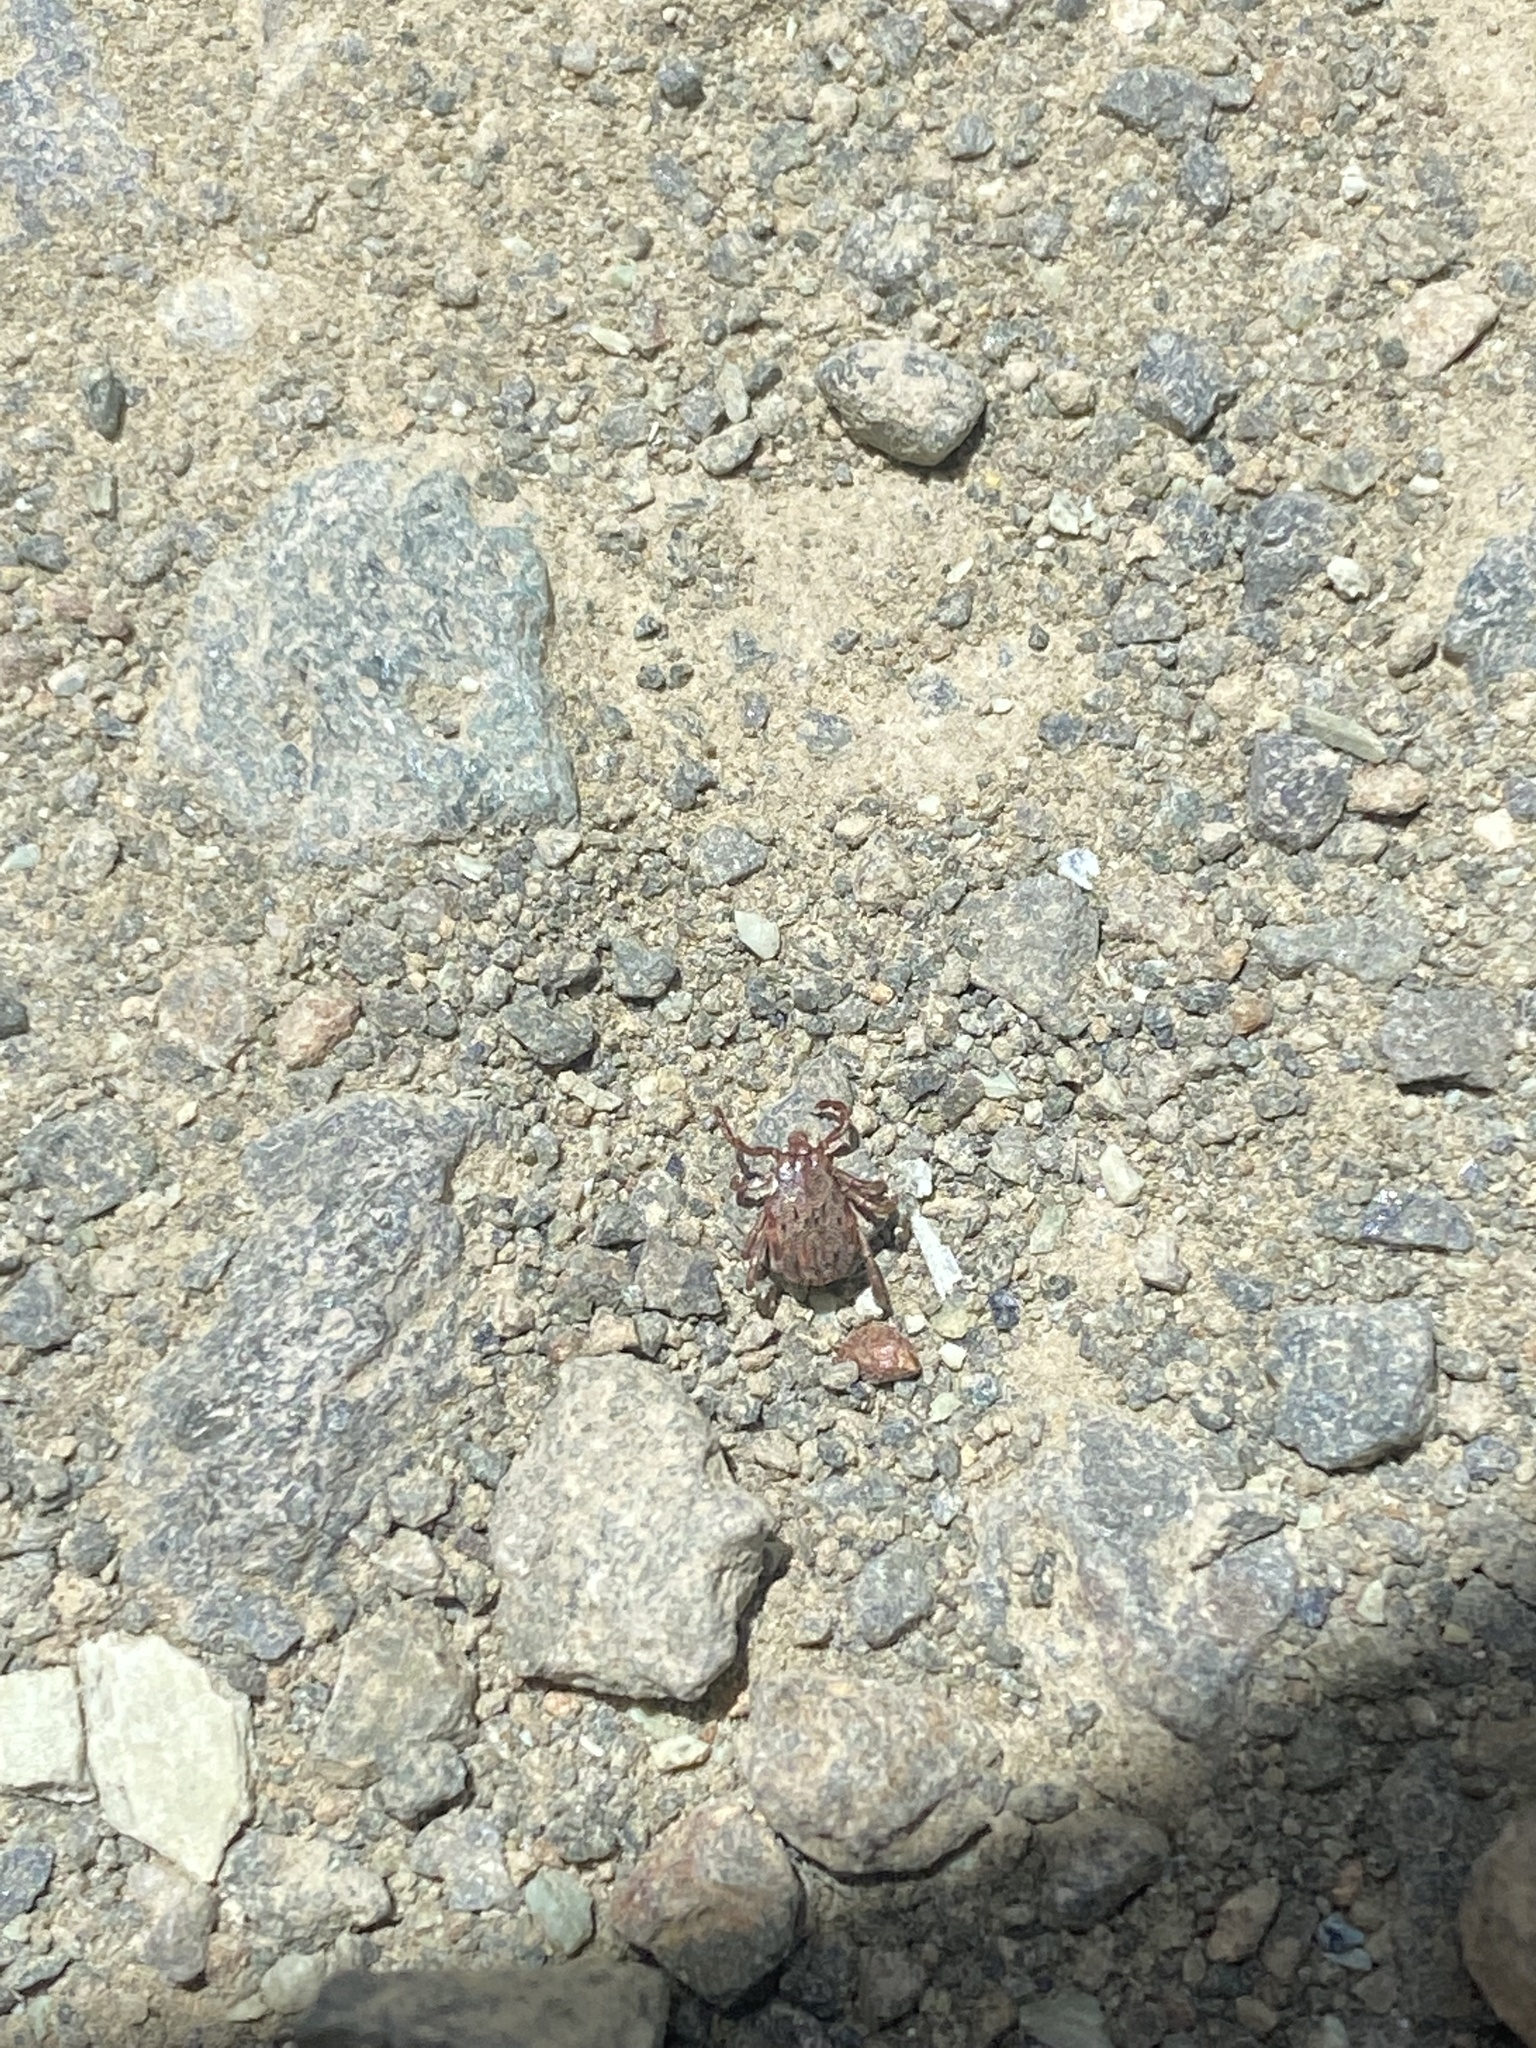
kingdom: Animalia
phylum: Arthropoda
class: Arachnida
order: Ixodida
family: Ixodidae
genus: Dermacentor
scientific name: Dermacentor occidentalis
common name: Net tick
